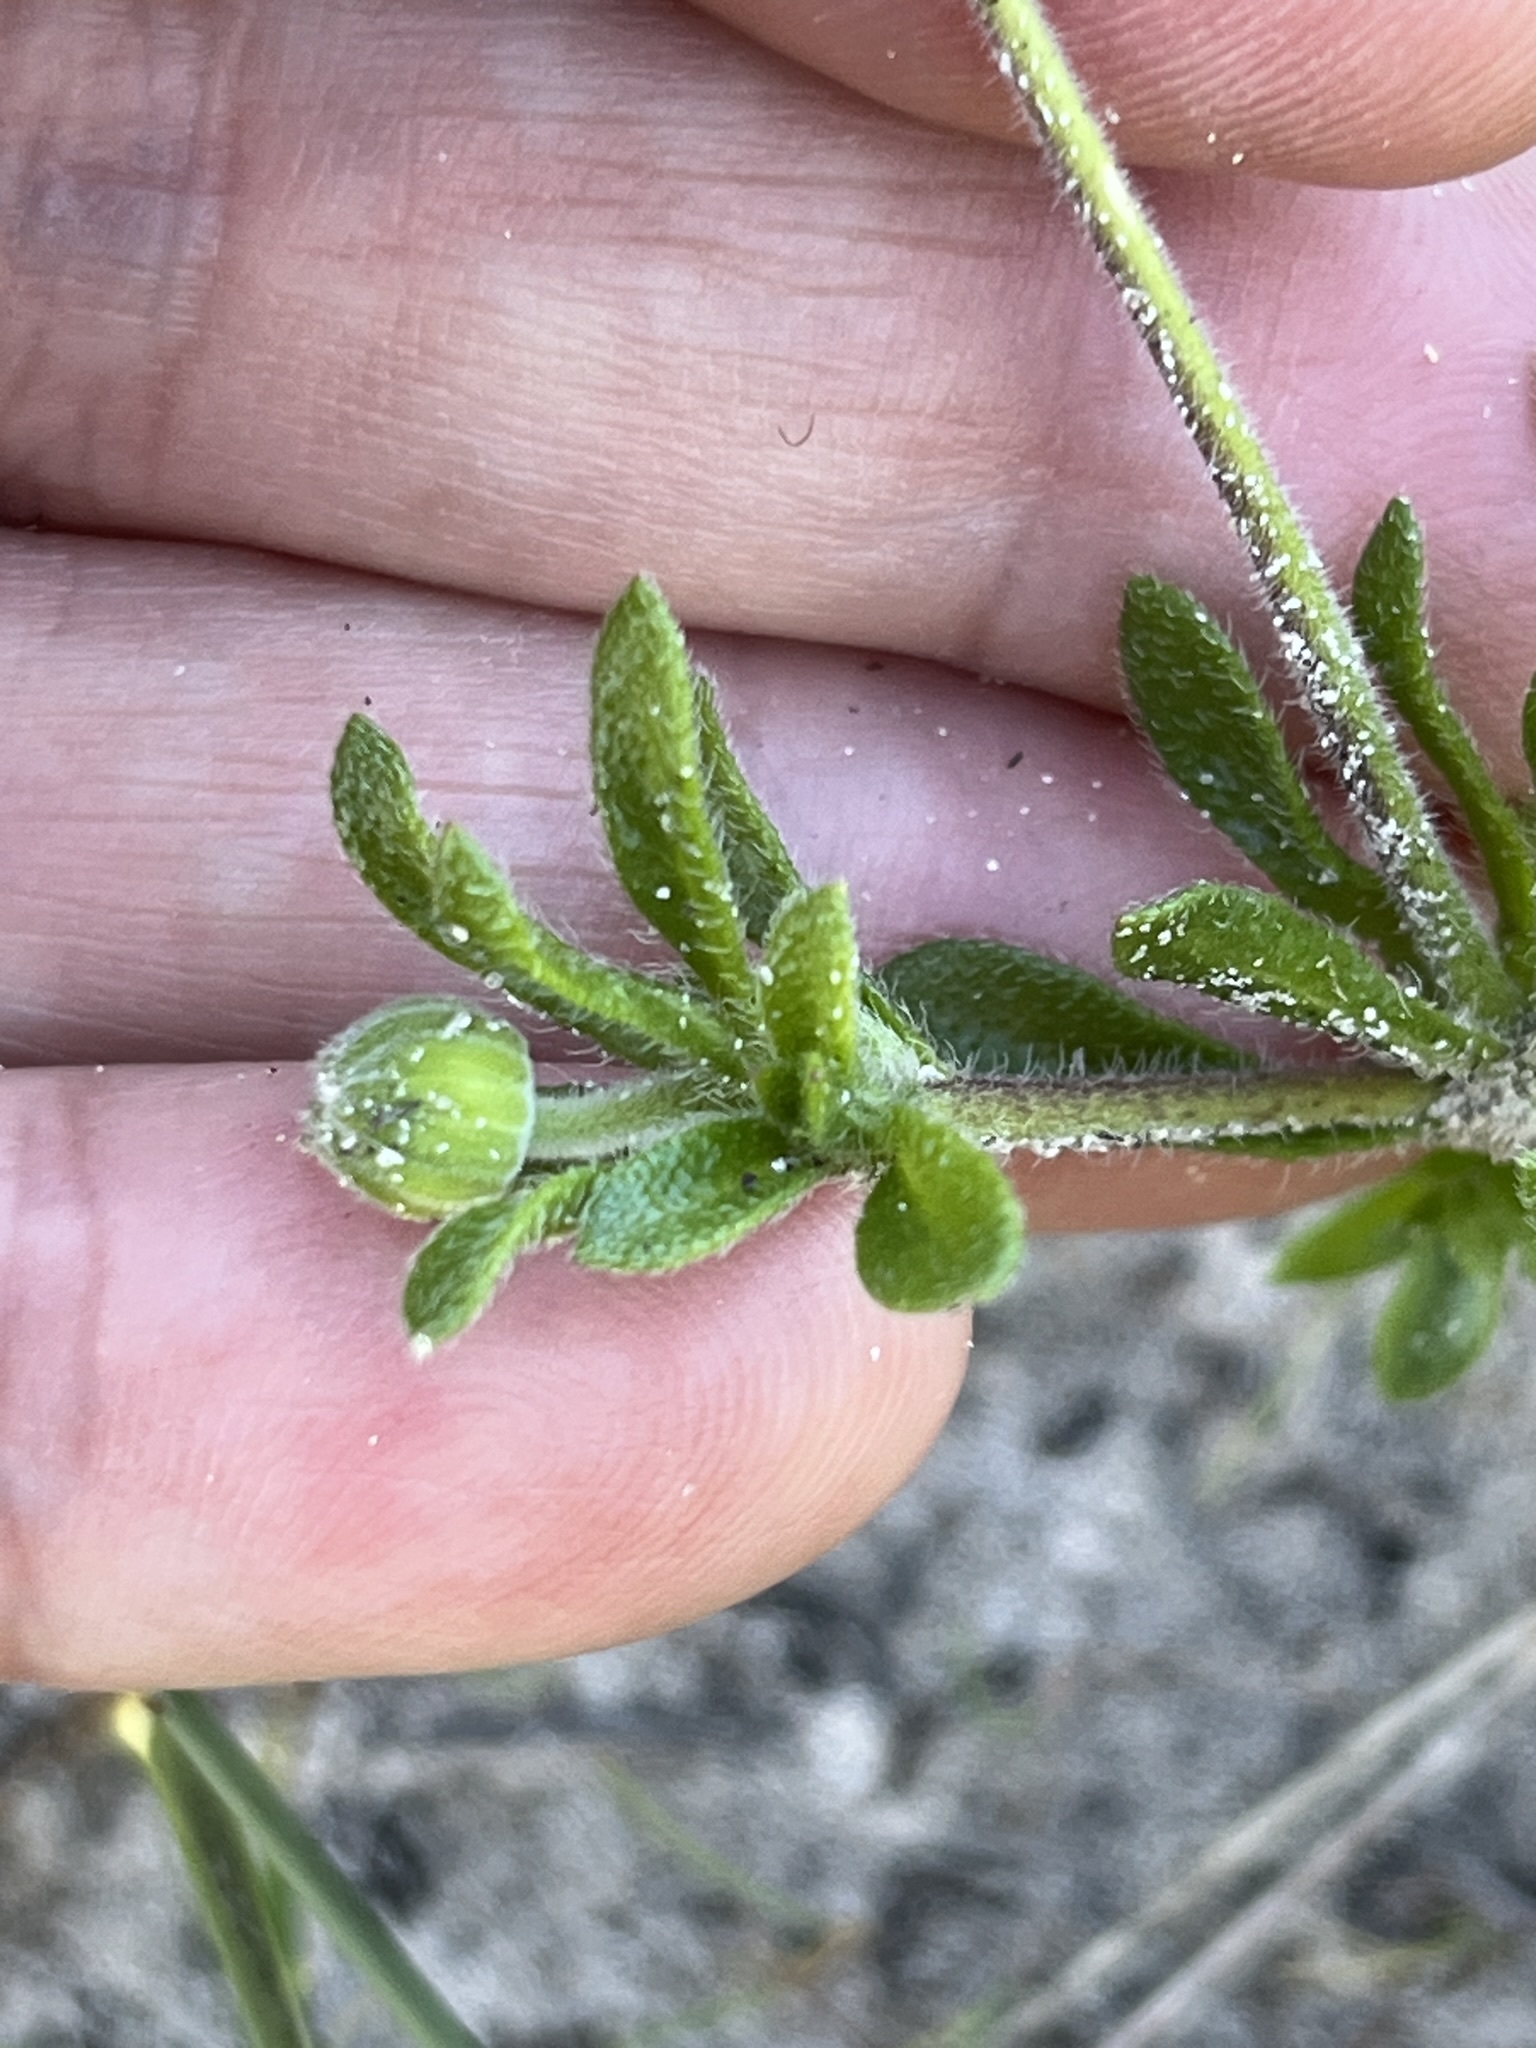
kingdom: Plantae
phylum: Tracheophyta
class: Magnoliopsida
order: Asterales
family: Asteraceae
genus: Felicia
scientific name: Felicia amoena
